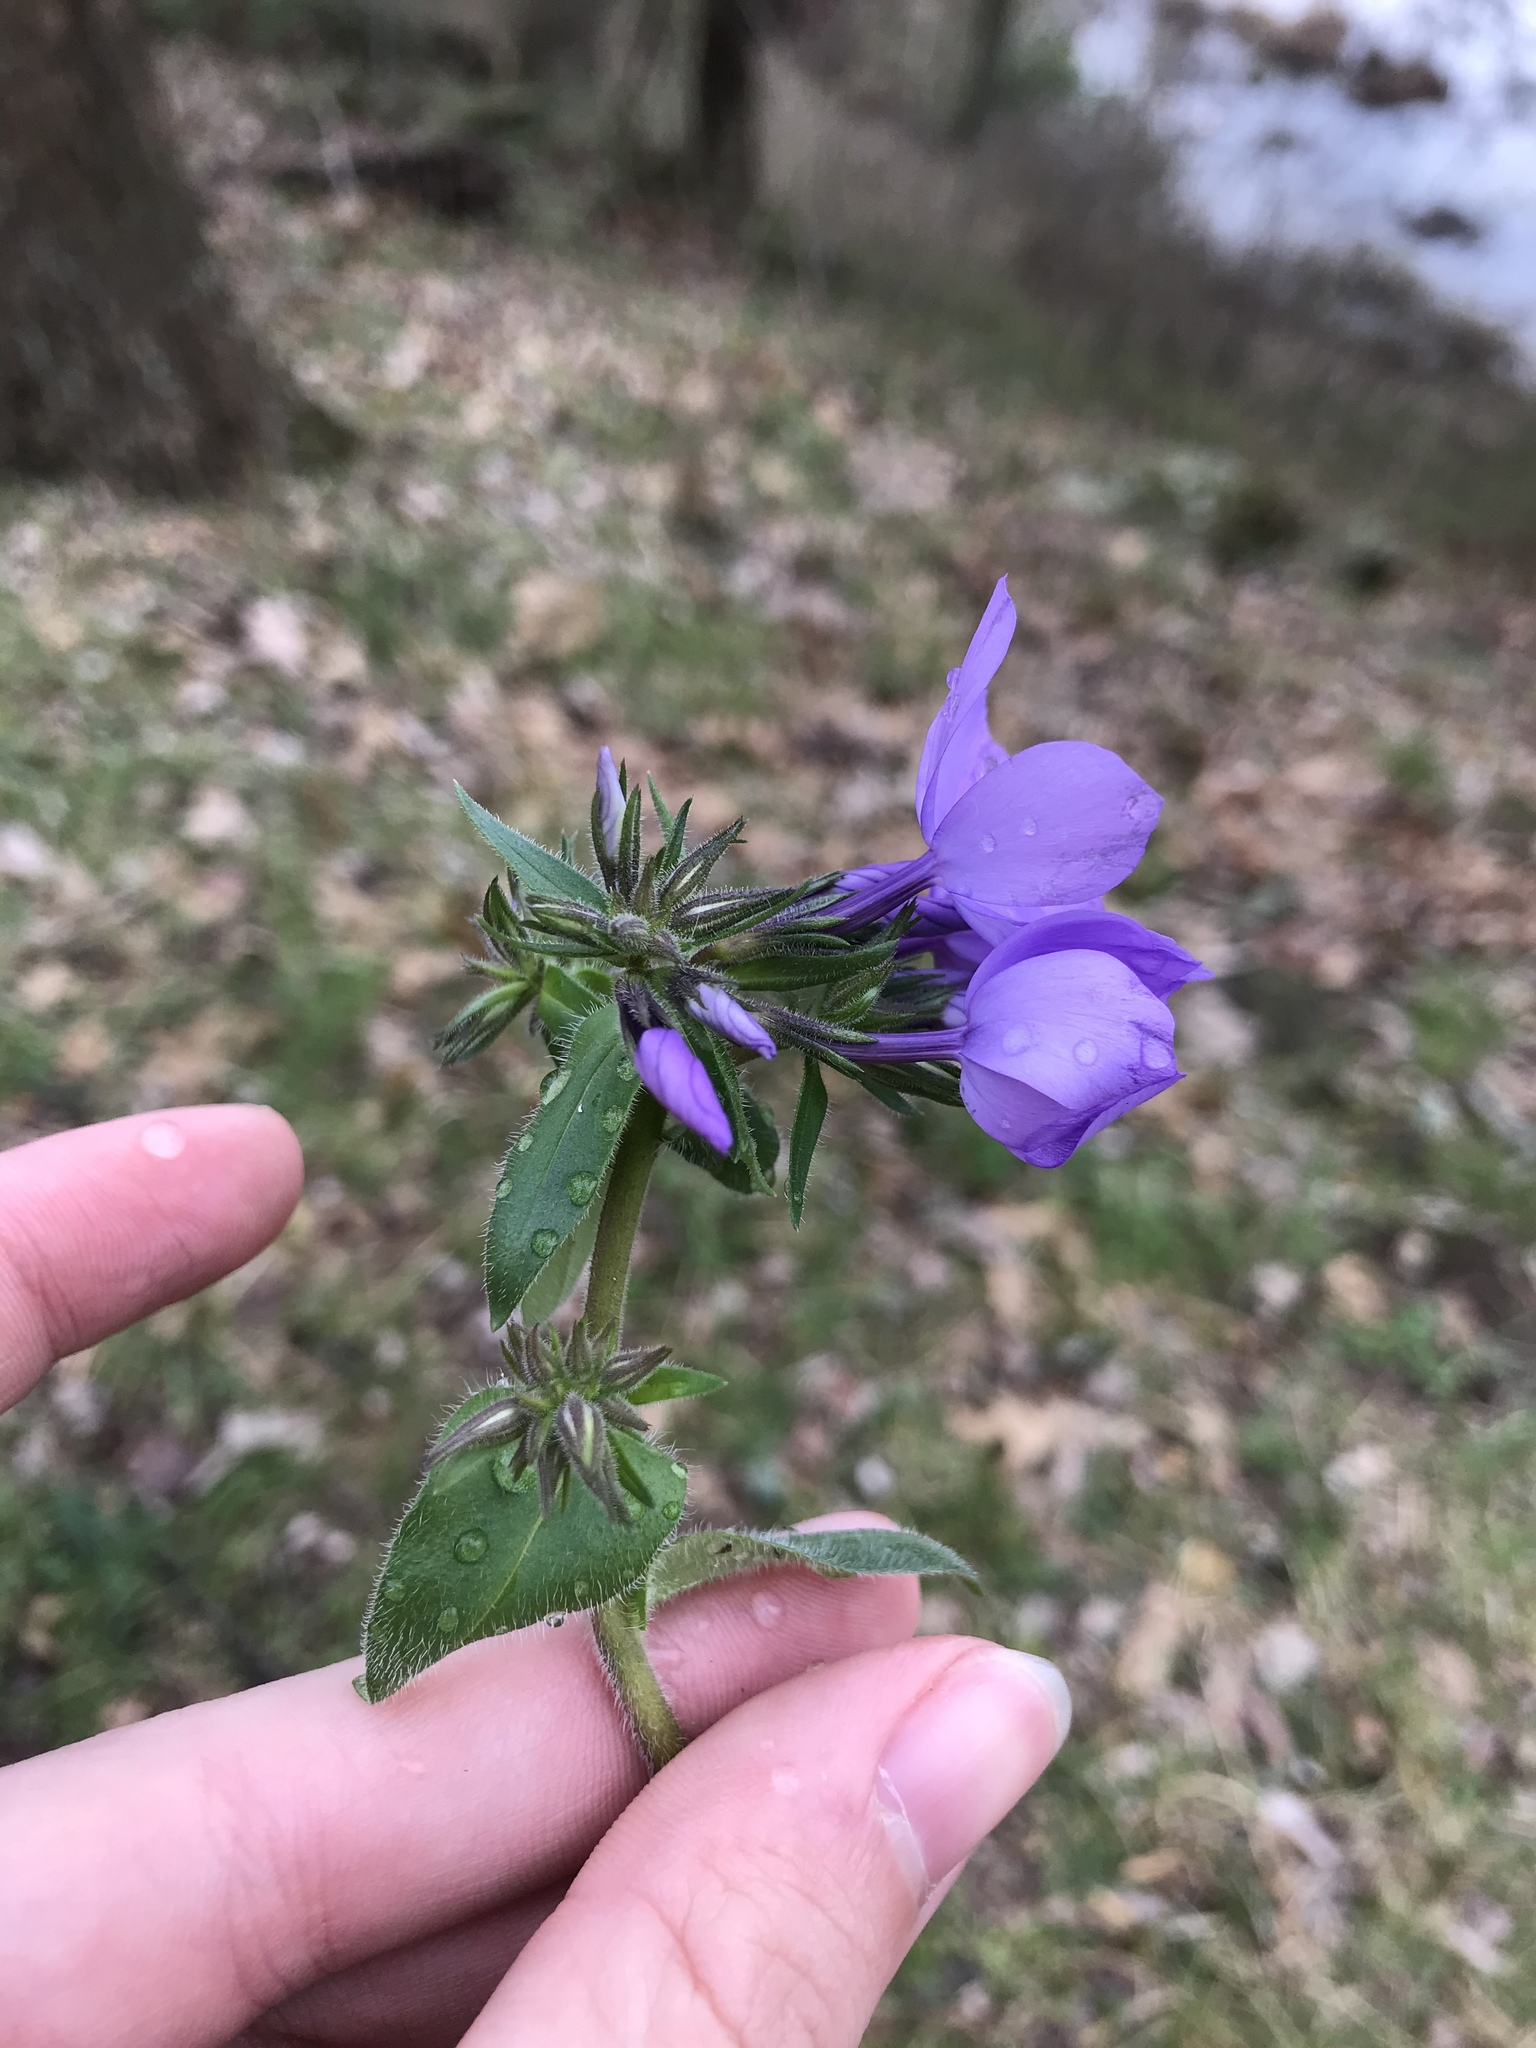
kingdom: Plantae
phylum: Tracheophyta
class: Magnoliopsida
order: Ericales
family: Polemoniaceae
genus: Phlox
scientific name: Phlox divaricata
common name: Blue phlox
